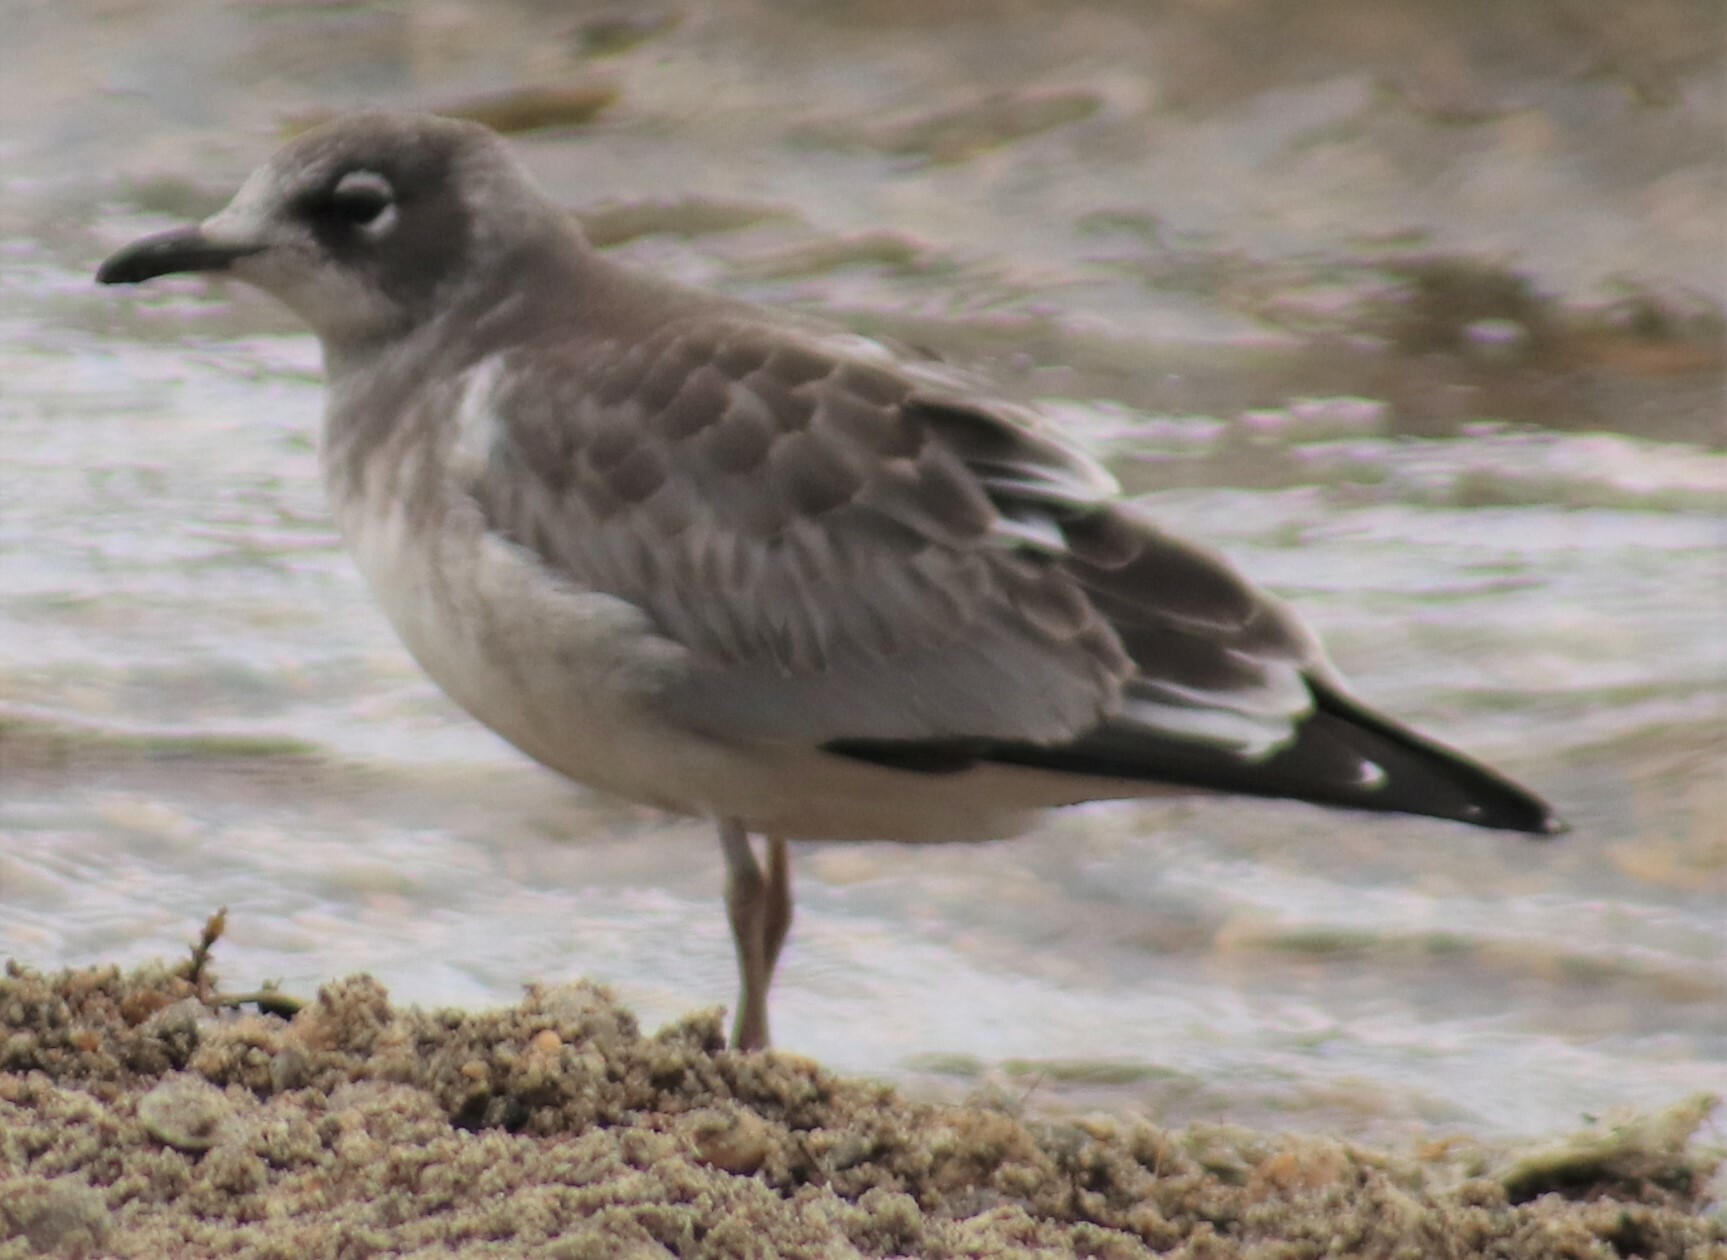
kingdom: Animalia
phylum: Chordata
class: Aves
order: Charadriiformes
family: Laridae
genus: Leucophaeus
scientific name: Leucophaeus pipixcan
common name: Franklin's gull
